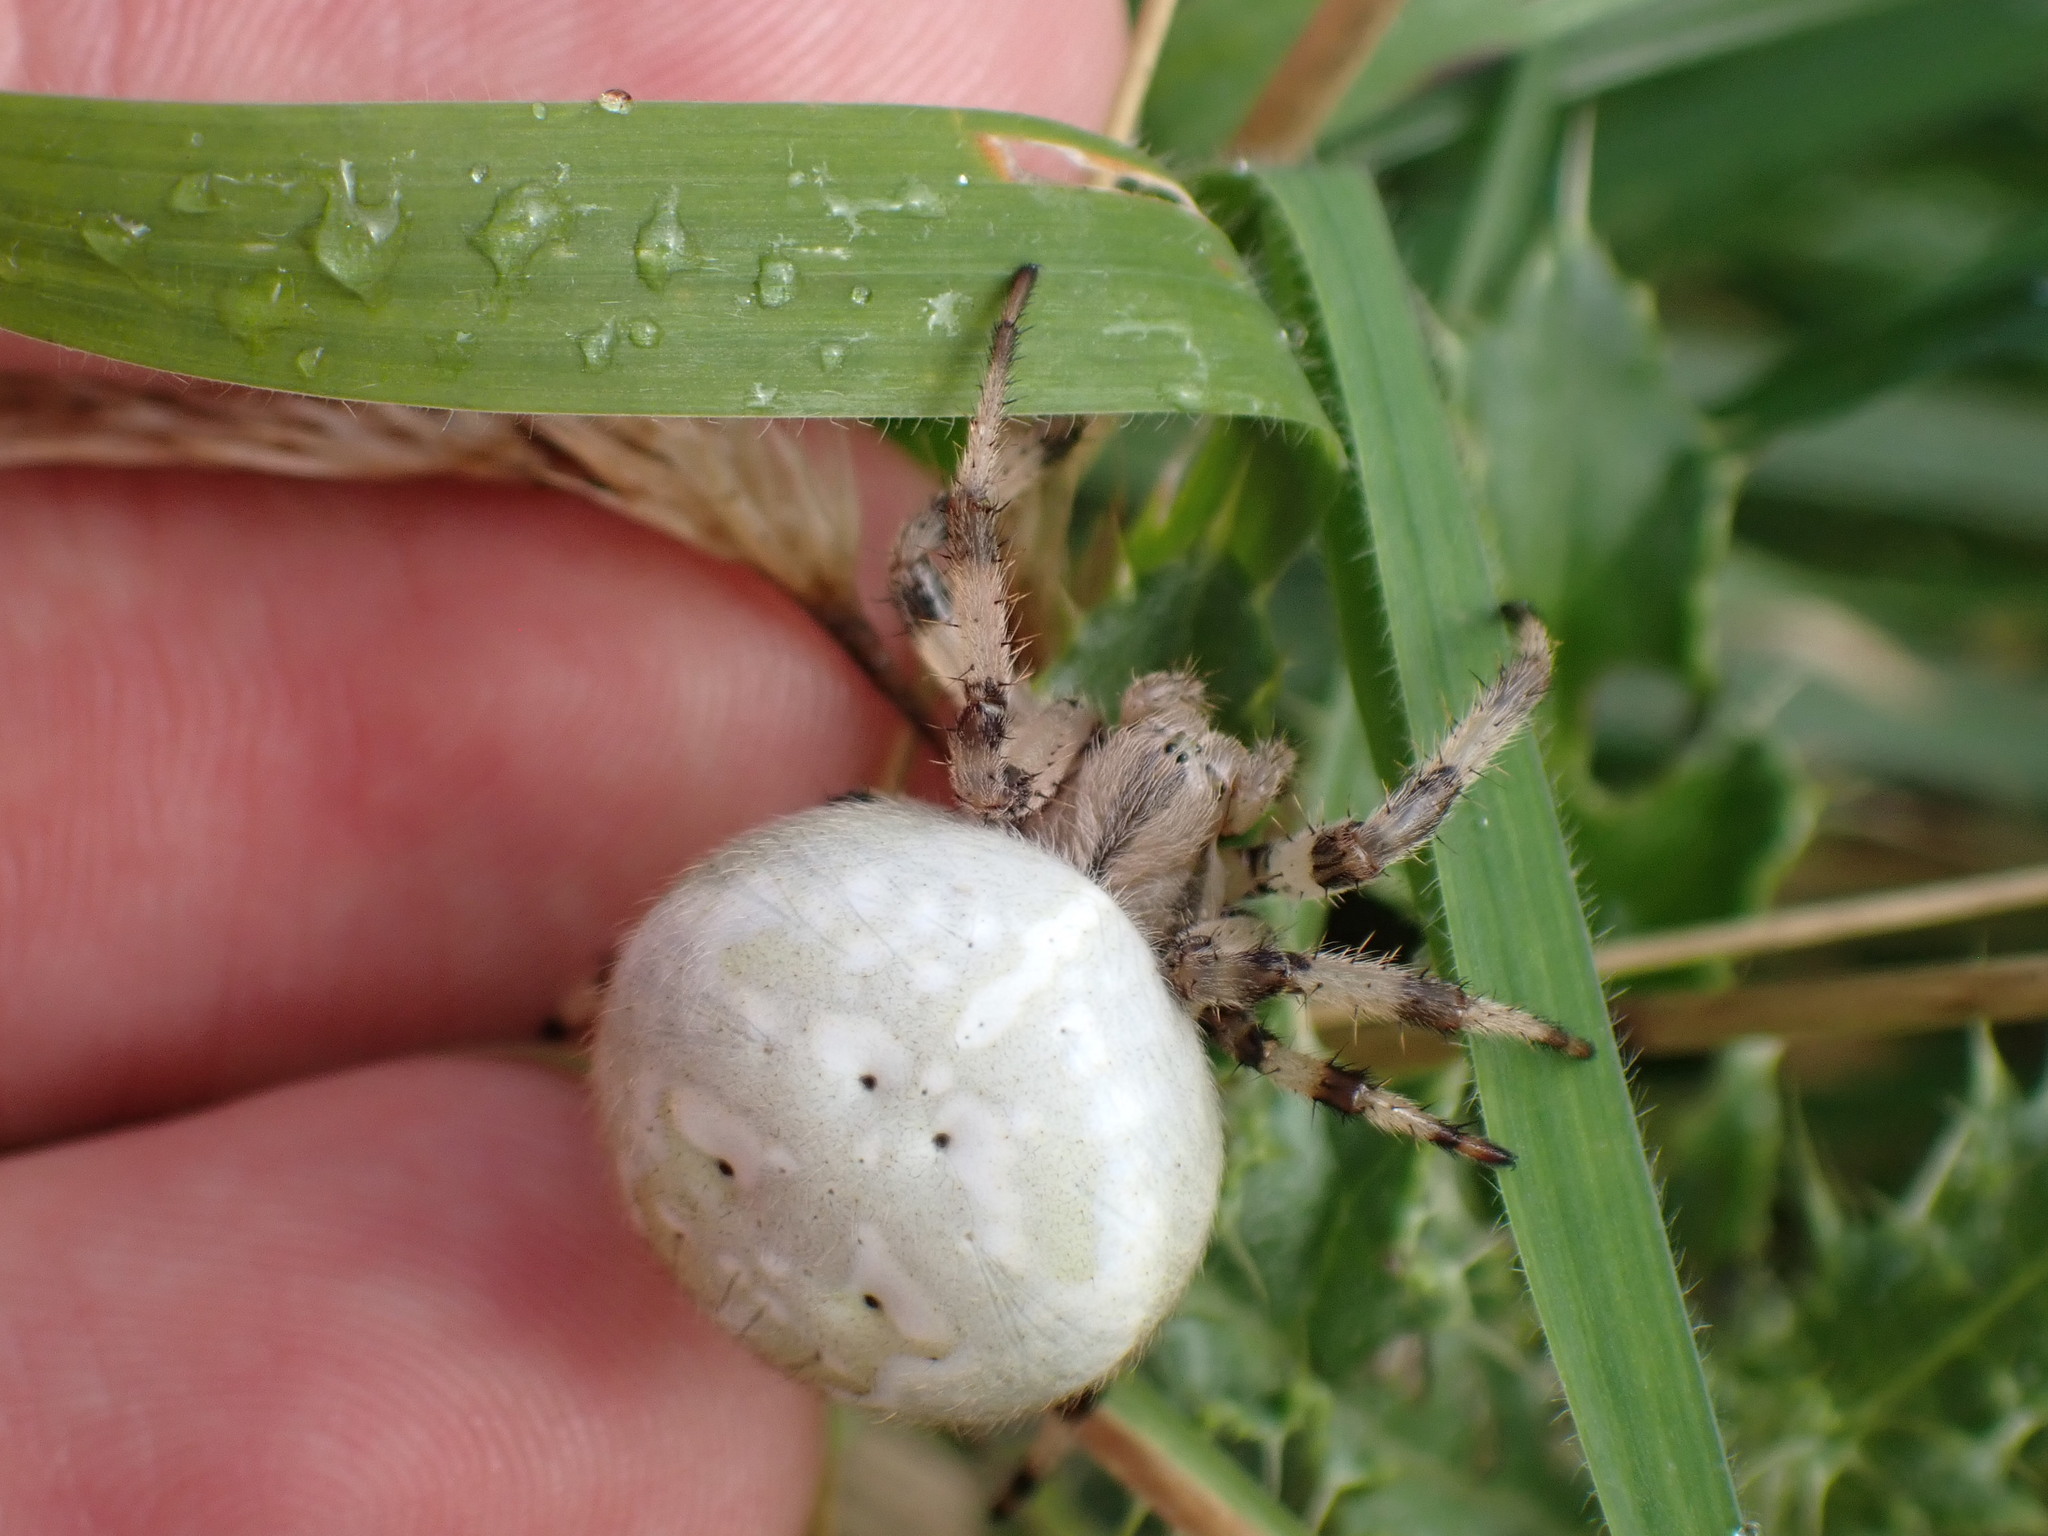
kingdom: Animalia
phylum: Arthropoda
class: Arachnida
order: Araneae
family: Araneidae
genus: Araneus
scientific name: Araneus quadratus
